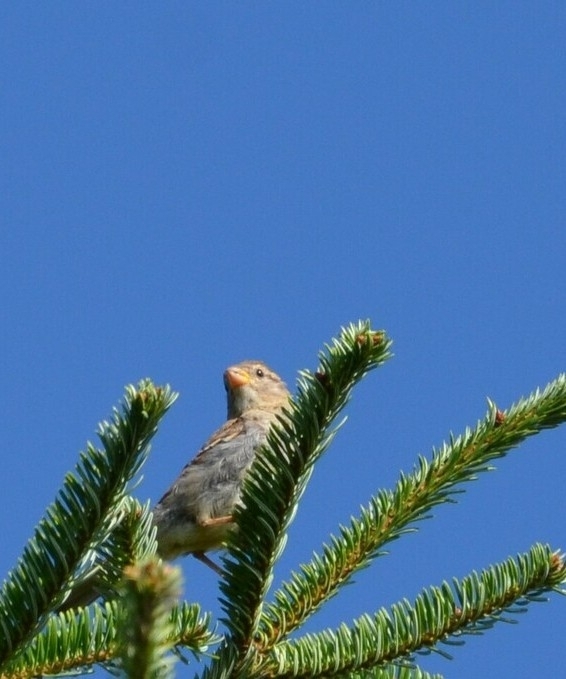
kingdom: Animalia
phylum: Chordata
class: Aves
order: Passeriformes
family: Passeridae
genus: Passer
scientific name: Passer domesticus
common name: House sparrow
